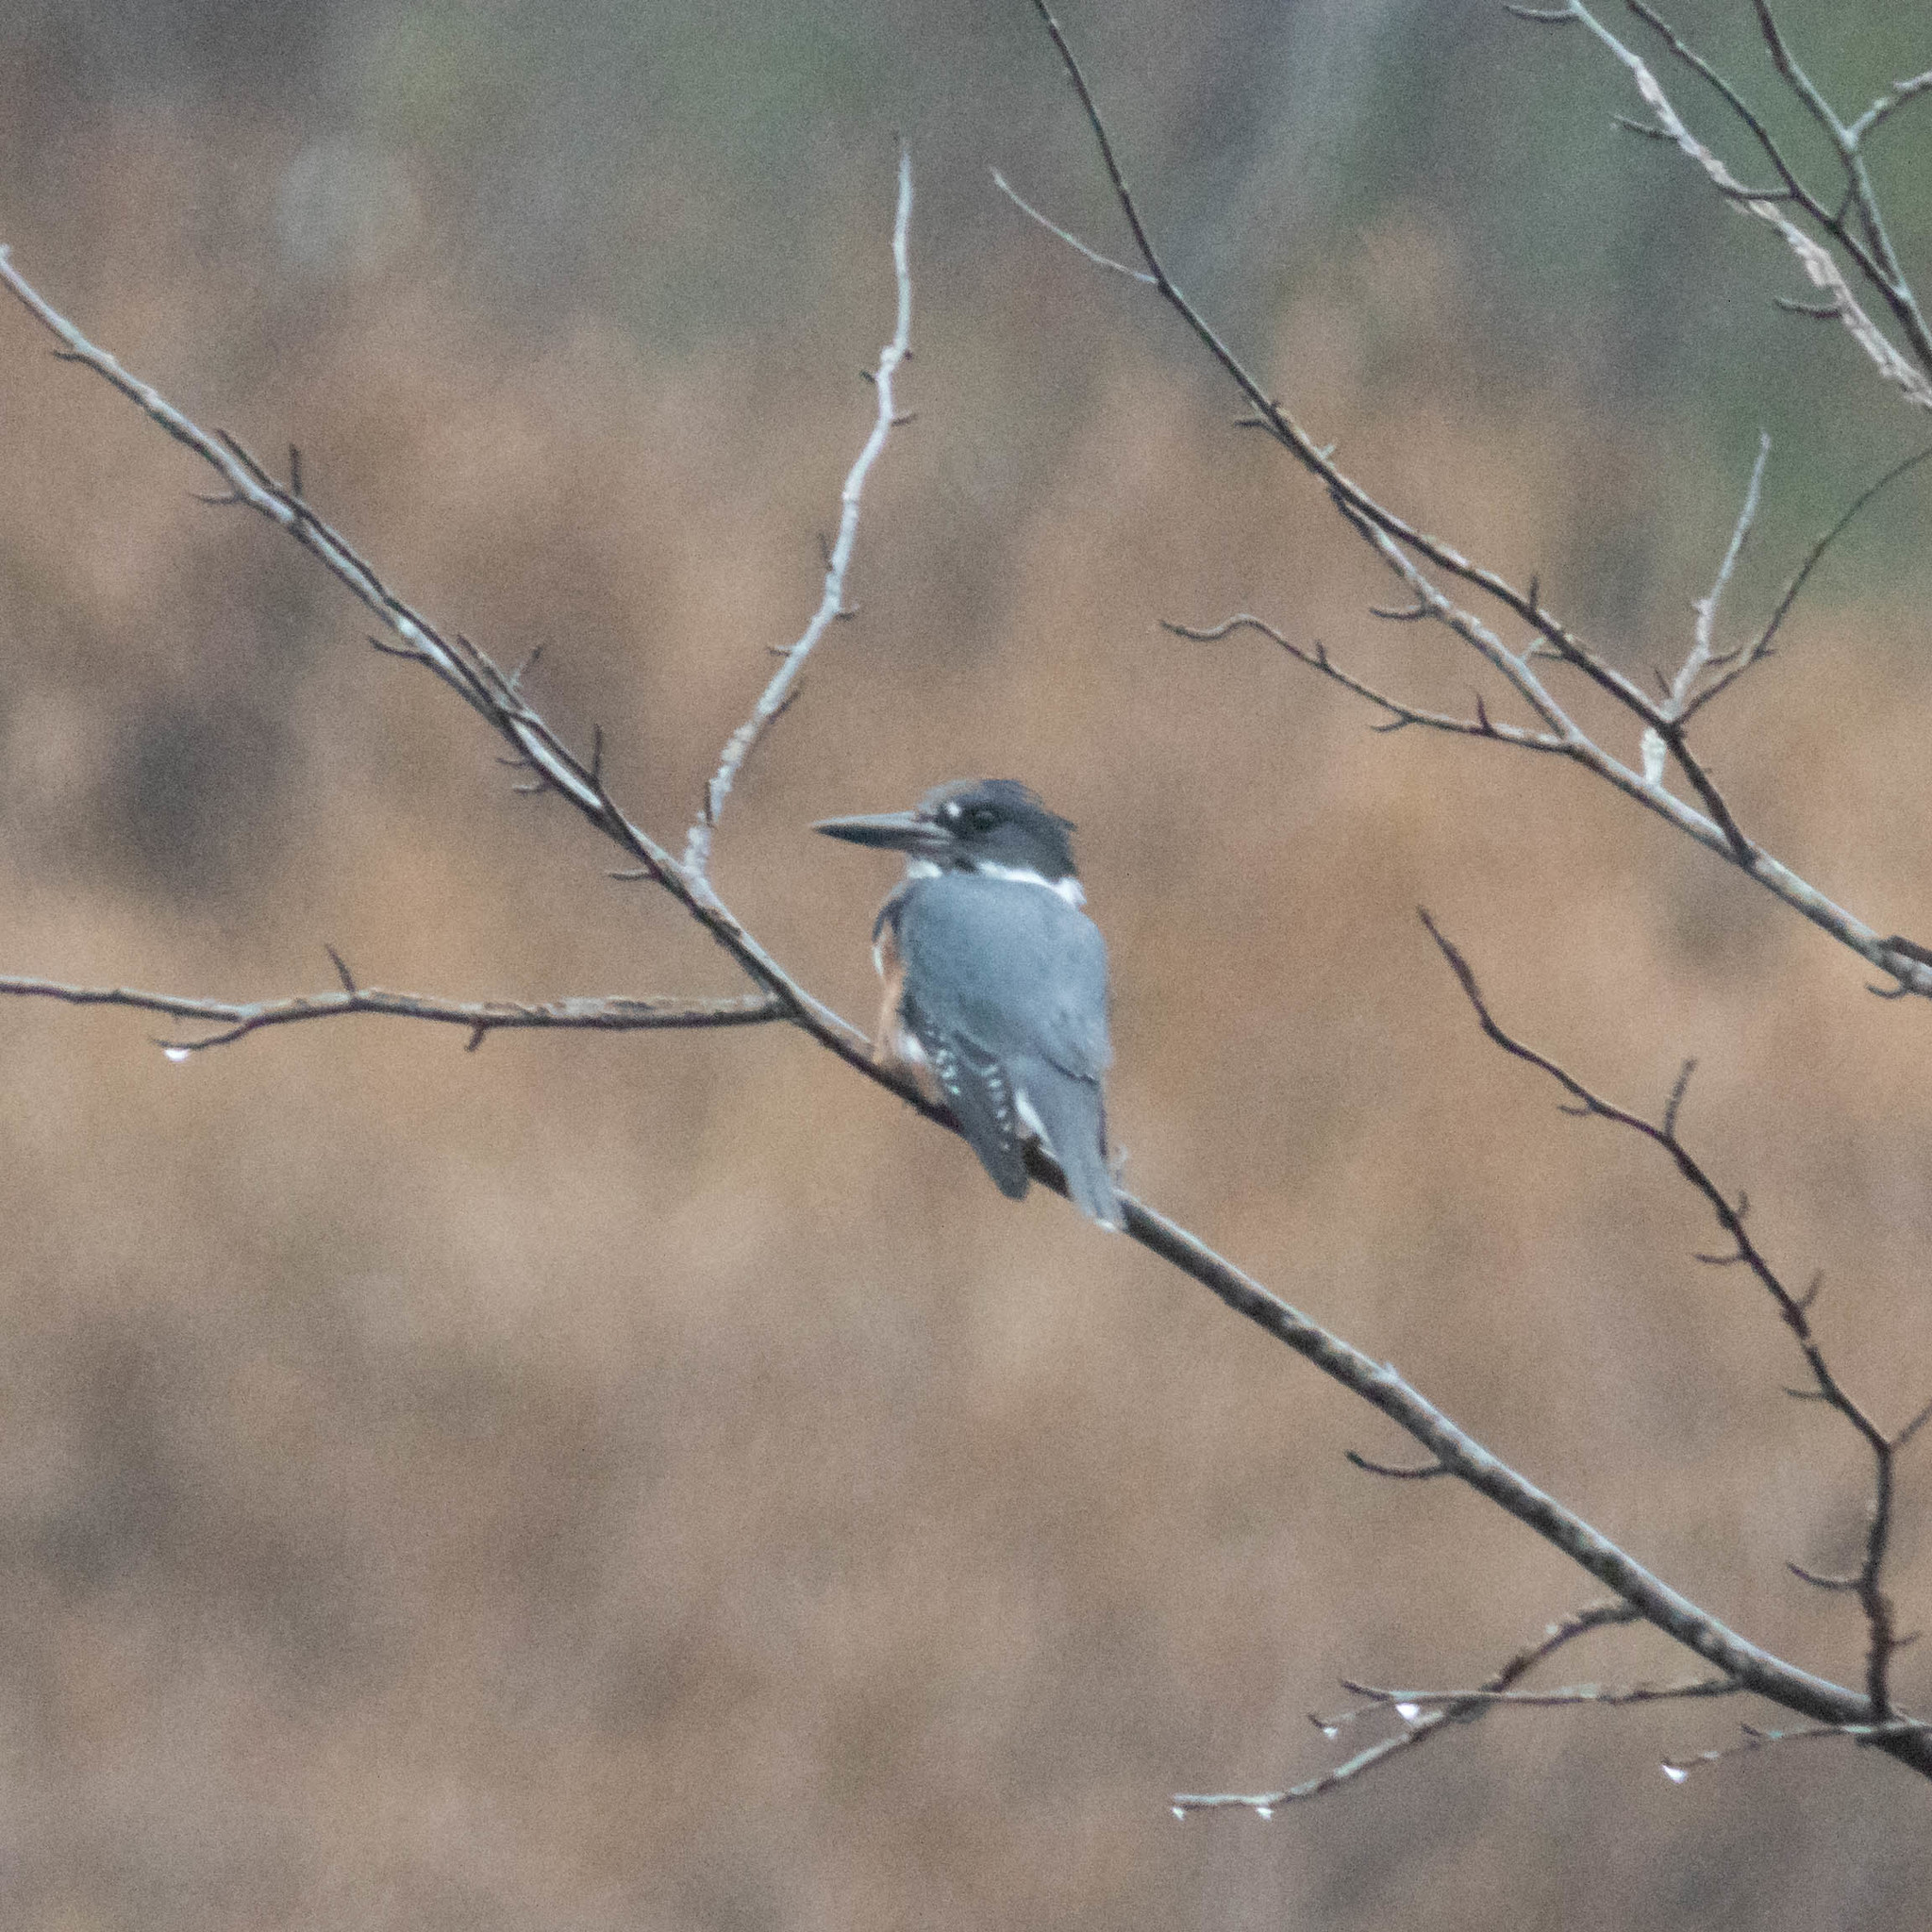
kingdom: Animalia
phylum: Chordata
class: Aves
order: Coraciiformes
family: Alcedinidae
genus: Megaceryle
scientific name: Megaceryle alcyon
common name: Belted kingfisher
